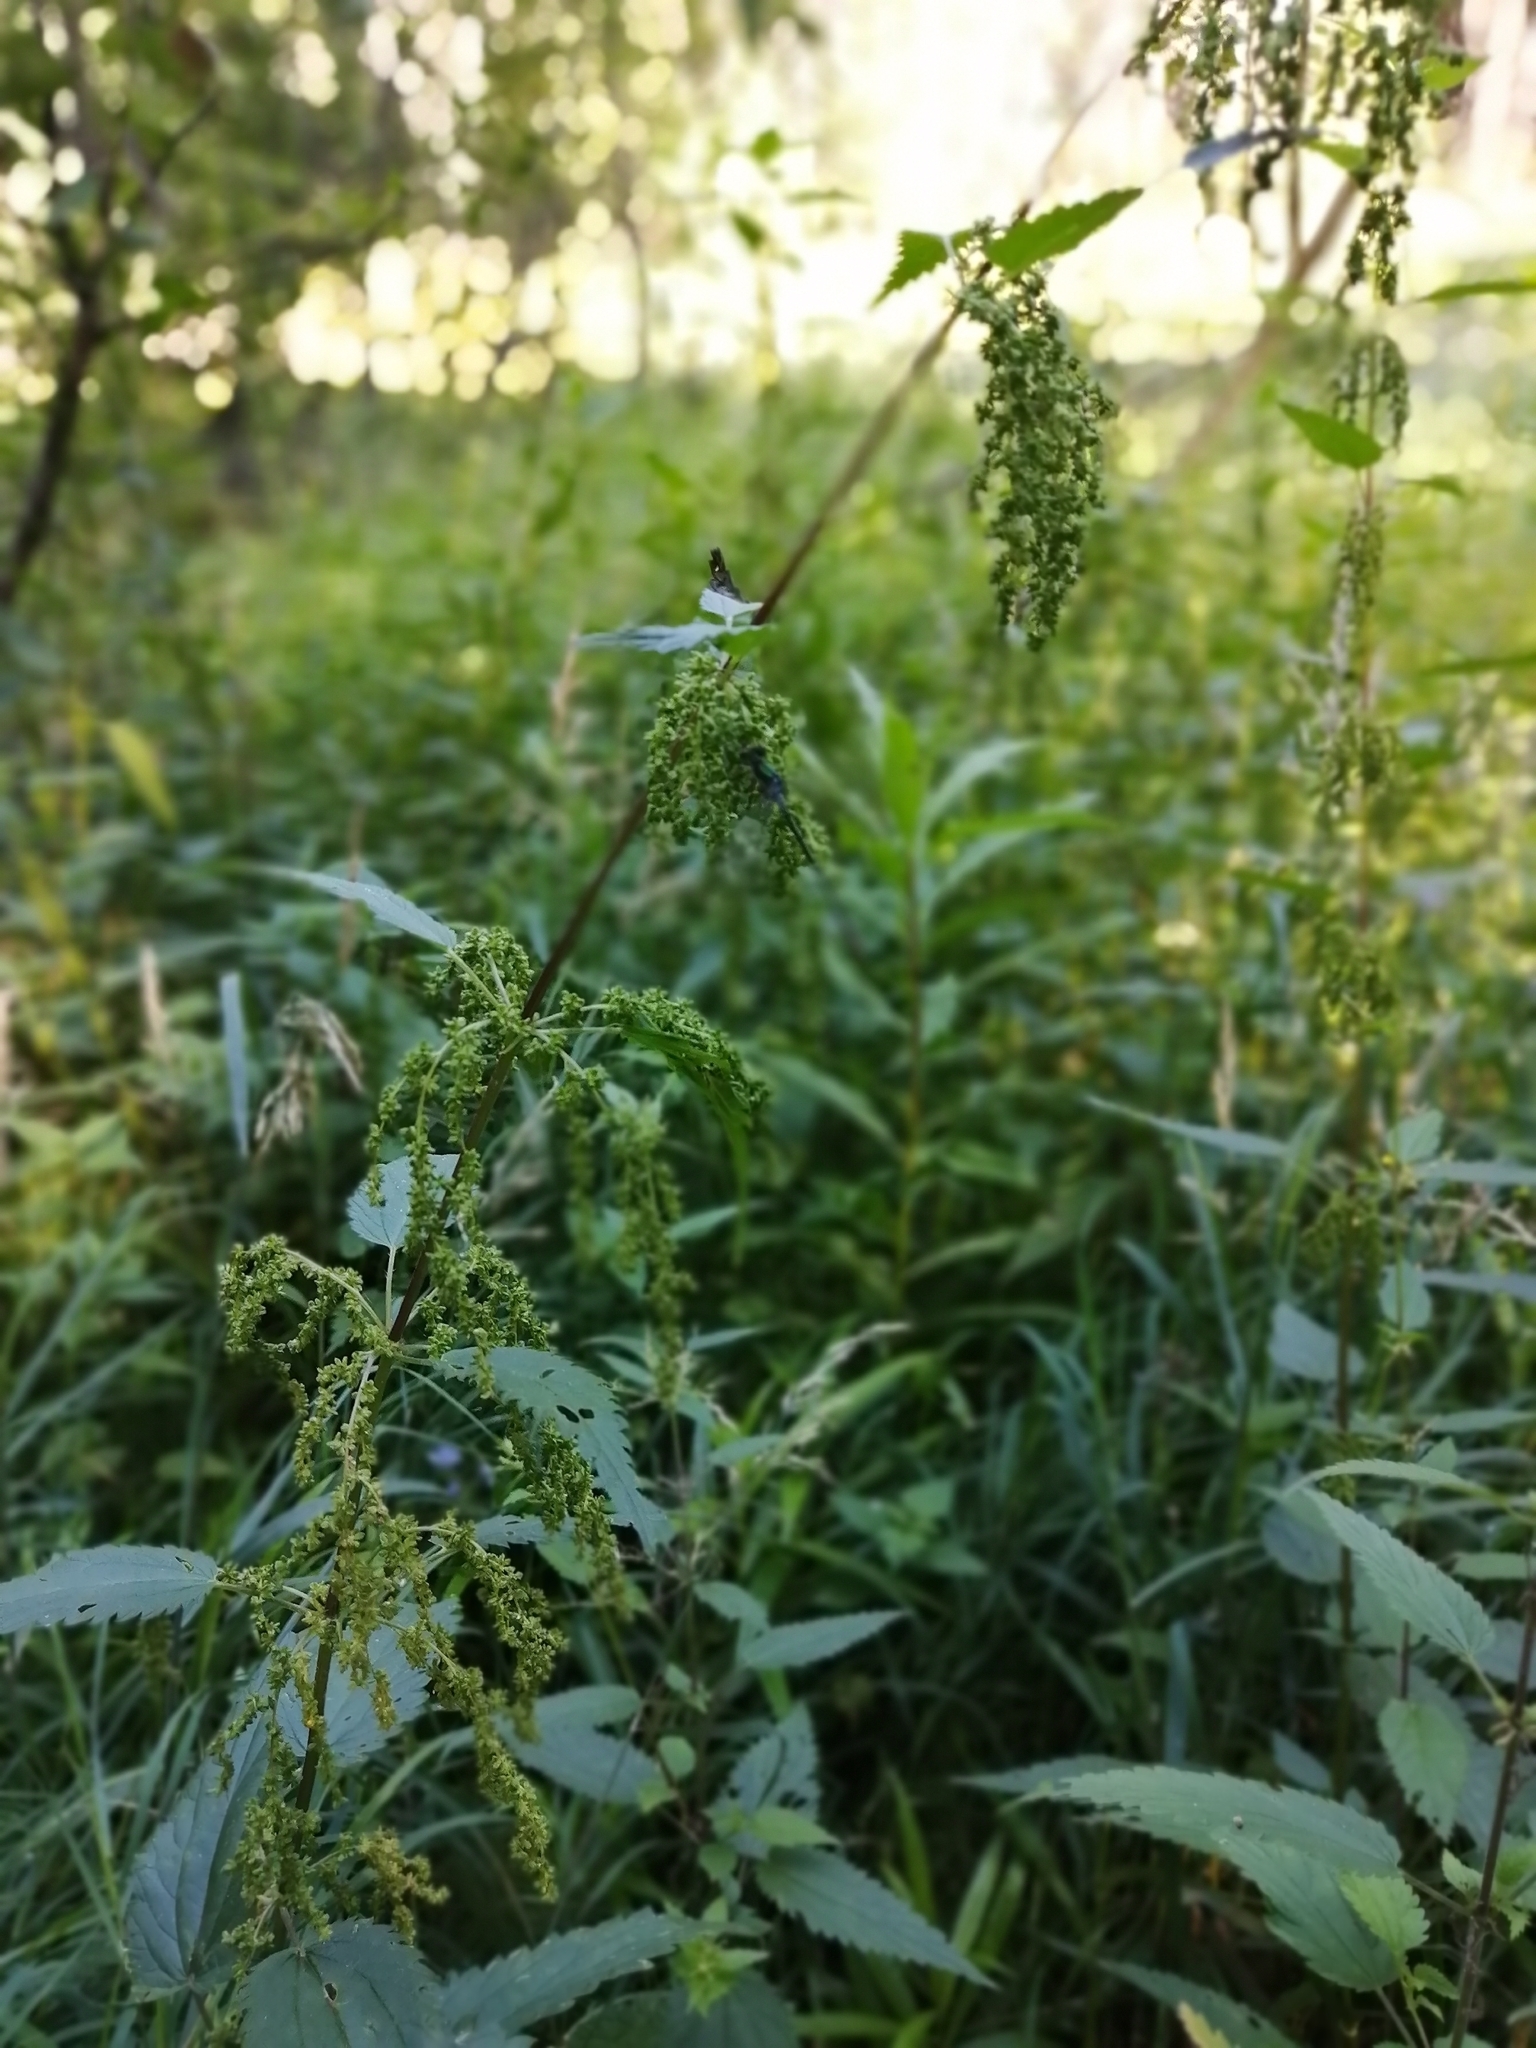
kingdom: Plantae
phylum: Tracheophyta
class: Magnoliopsida
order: Rosales
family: Urticaceae
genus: Urtica
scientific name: Urtica dioica
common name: Common nettle
